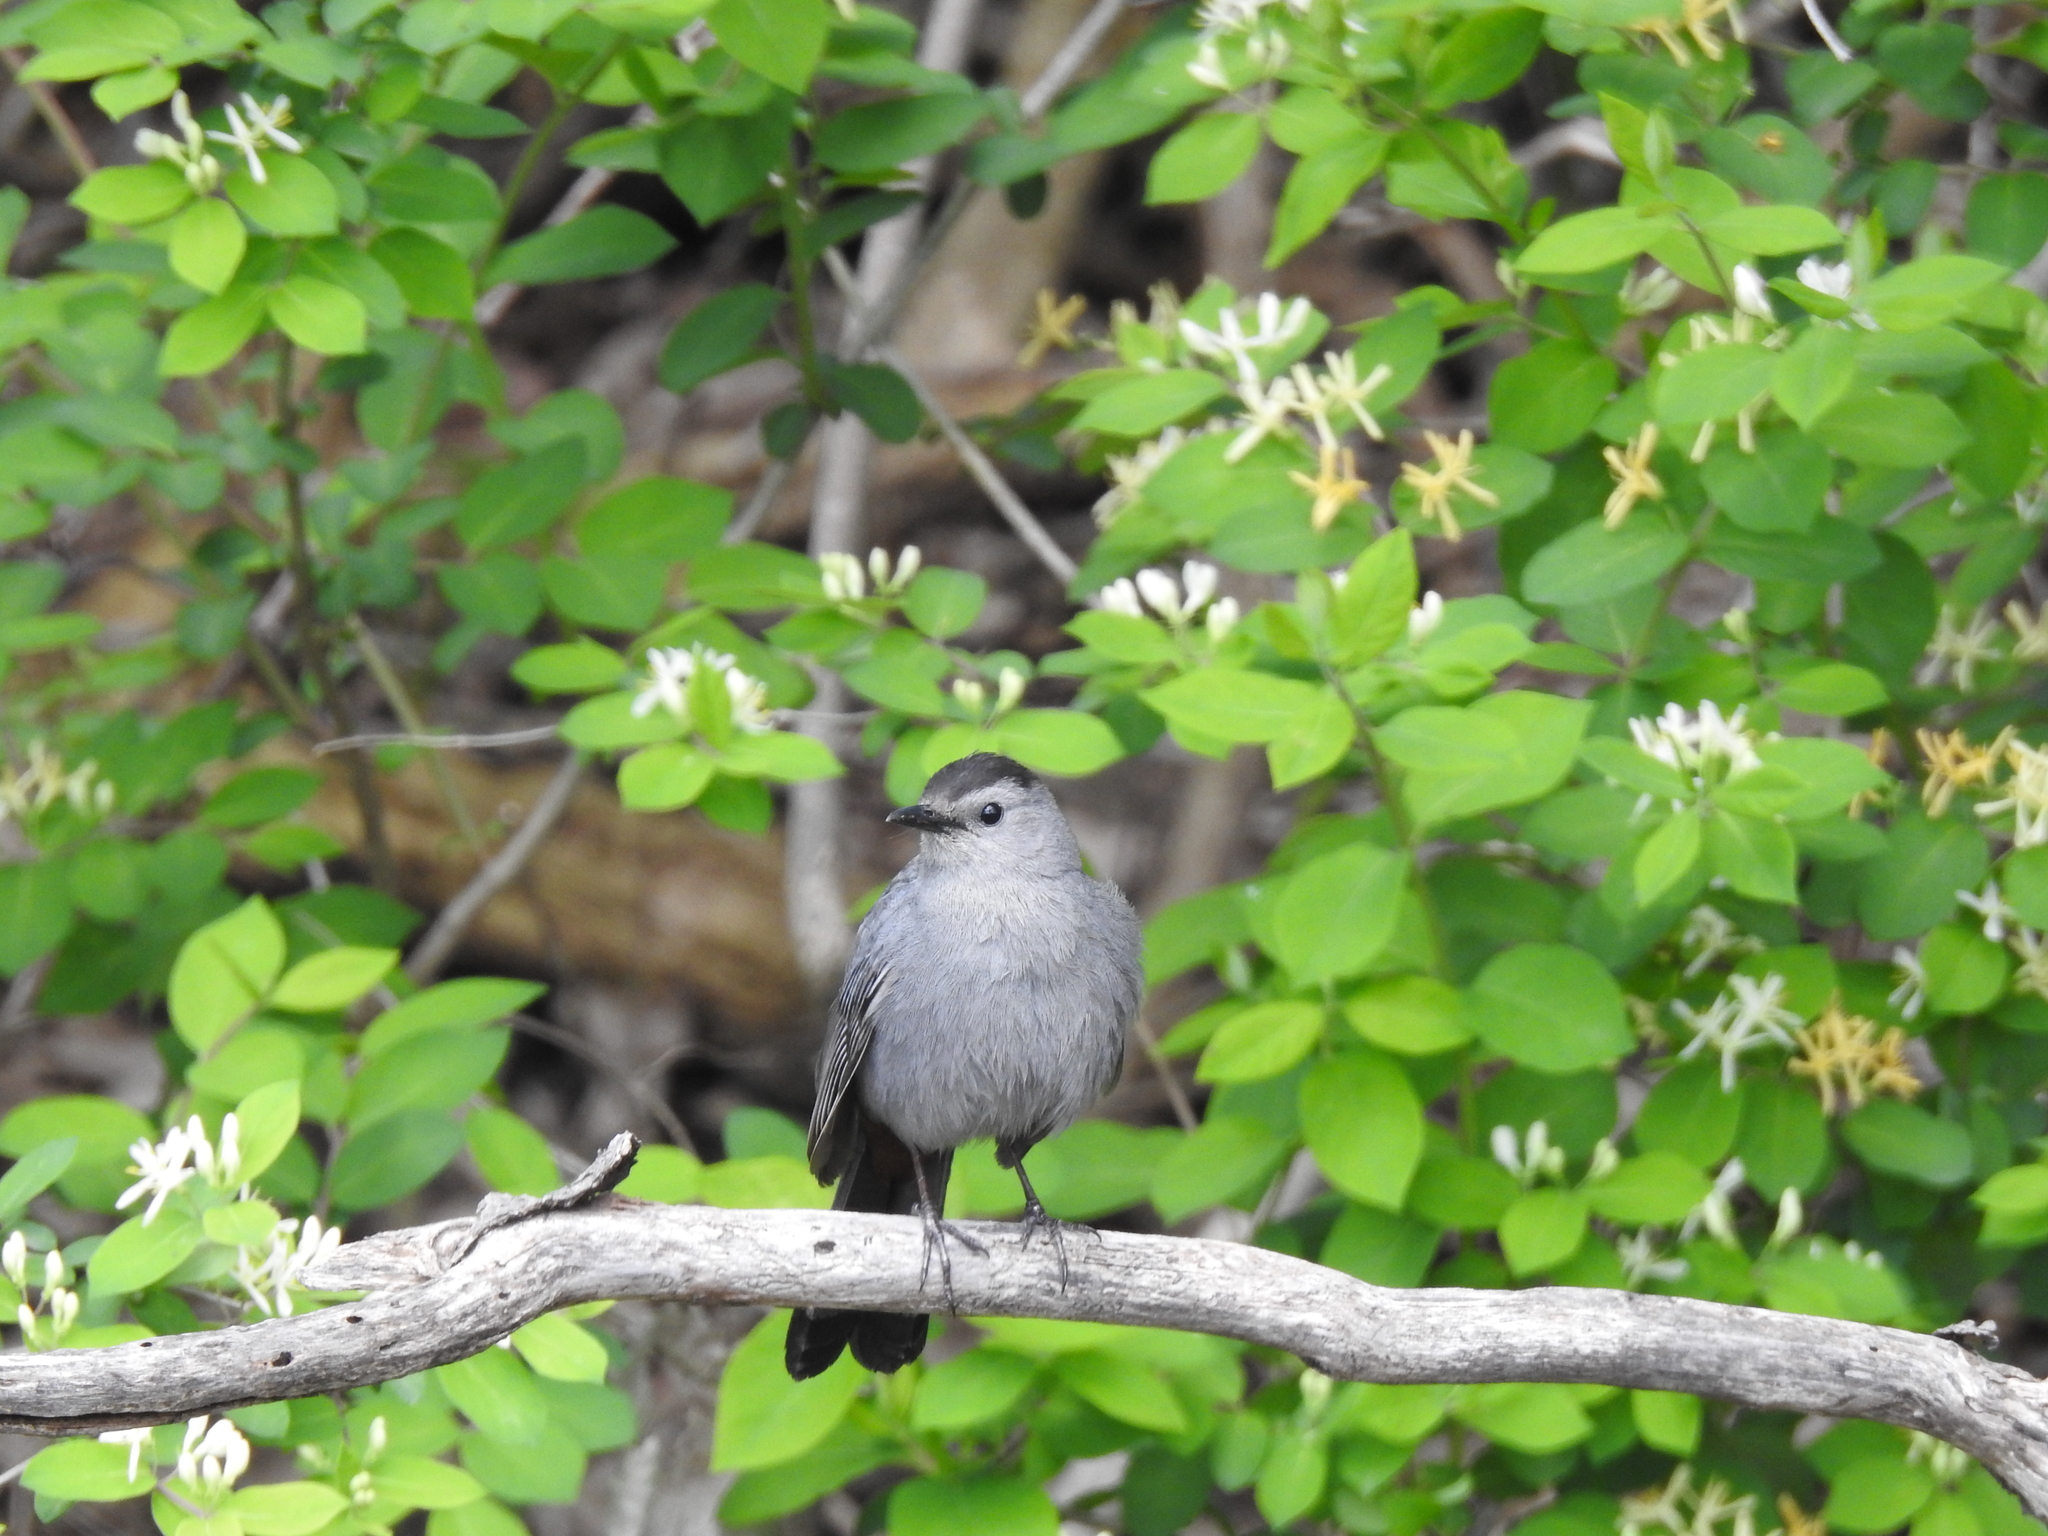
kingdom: Animalia
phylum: Chordata
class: Aves
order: Passeriformes
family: Mimidae
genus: Dumetella
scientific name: Dumetella carolinensis
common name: Gray catbird
